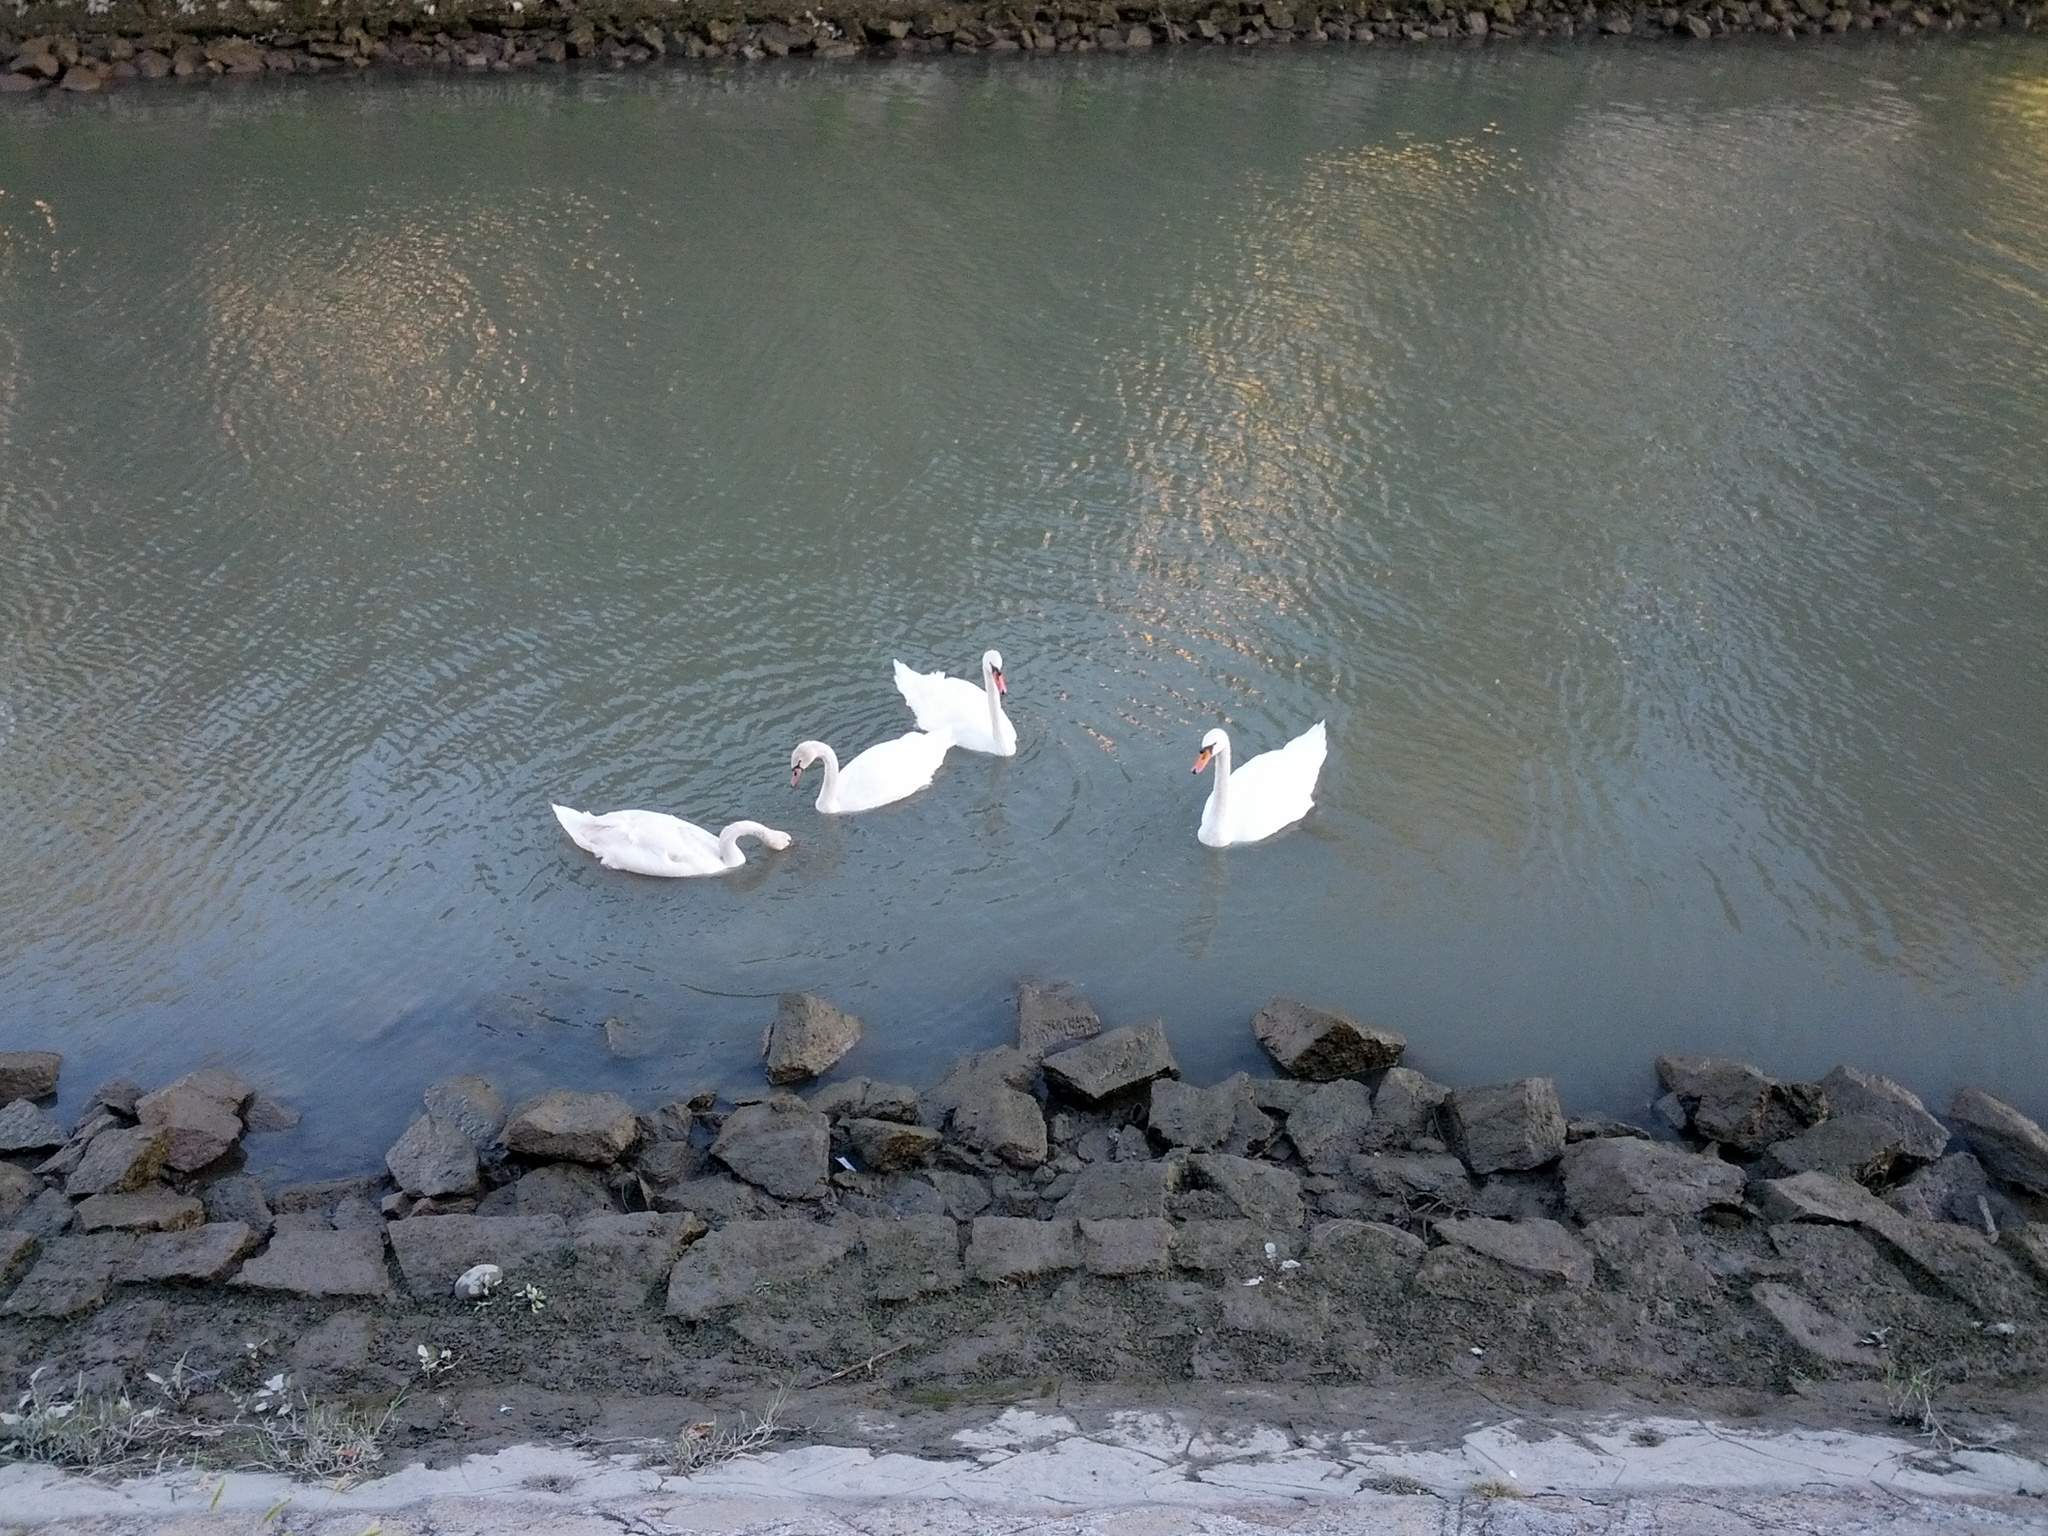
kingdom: Animalia
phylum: Chordata
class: Aves
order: Anseriformes
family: Anatidae
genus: Cygnus
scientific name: Cygnus olor
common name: Mute swan
